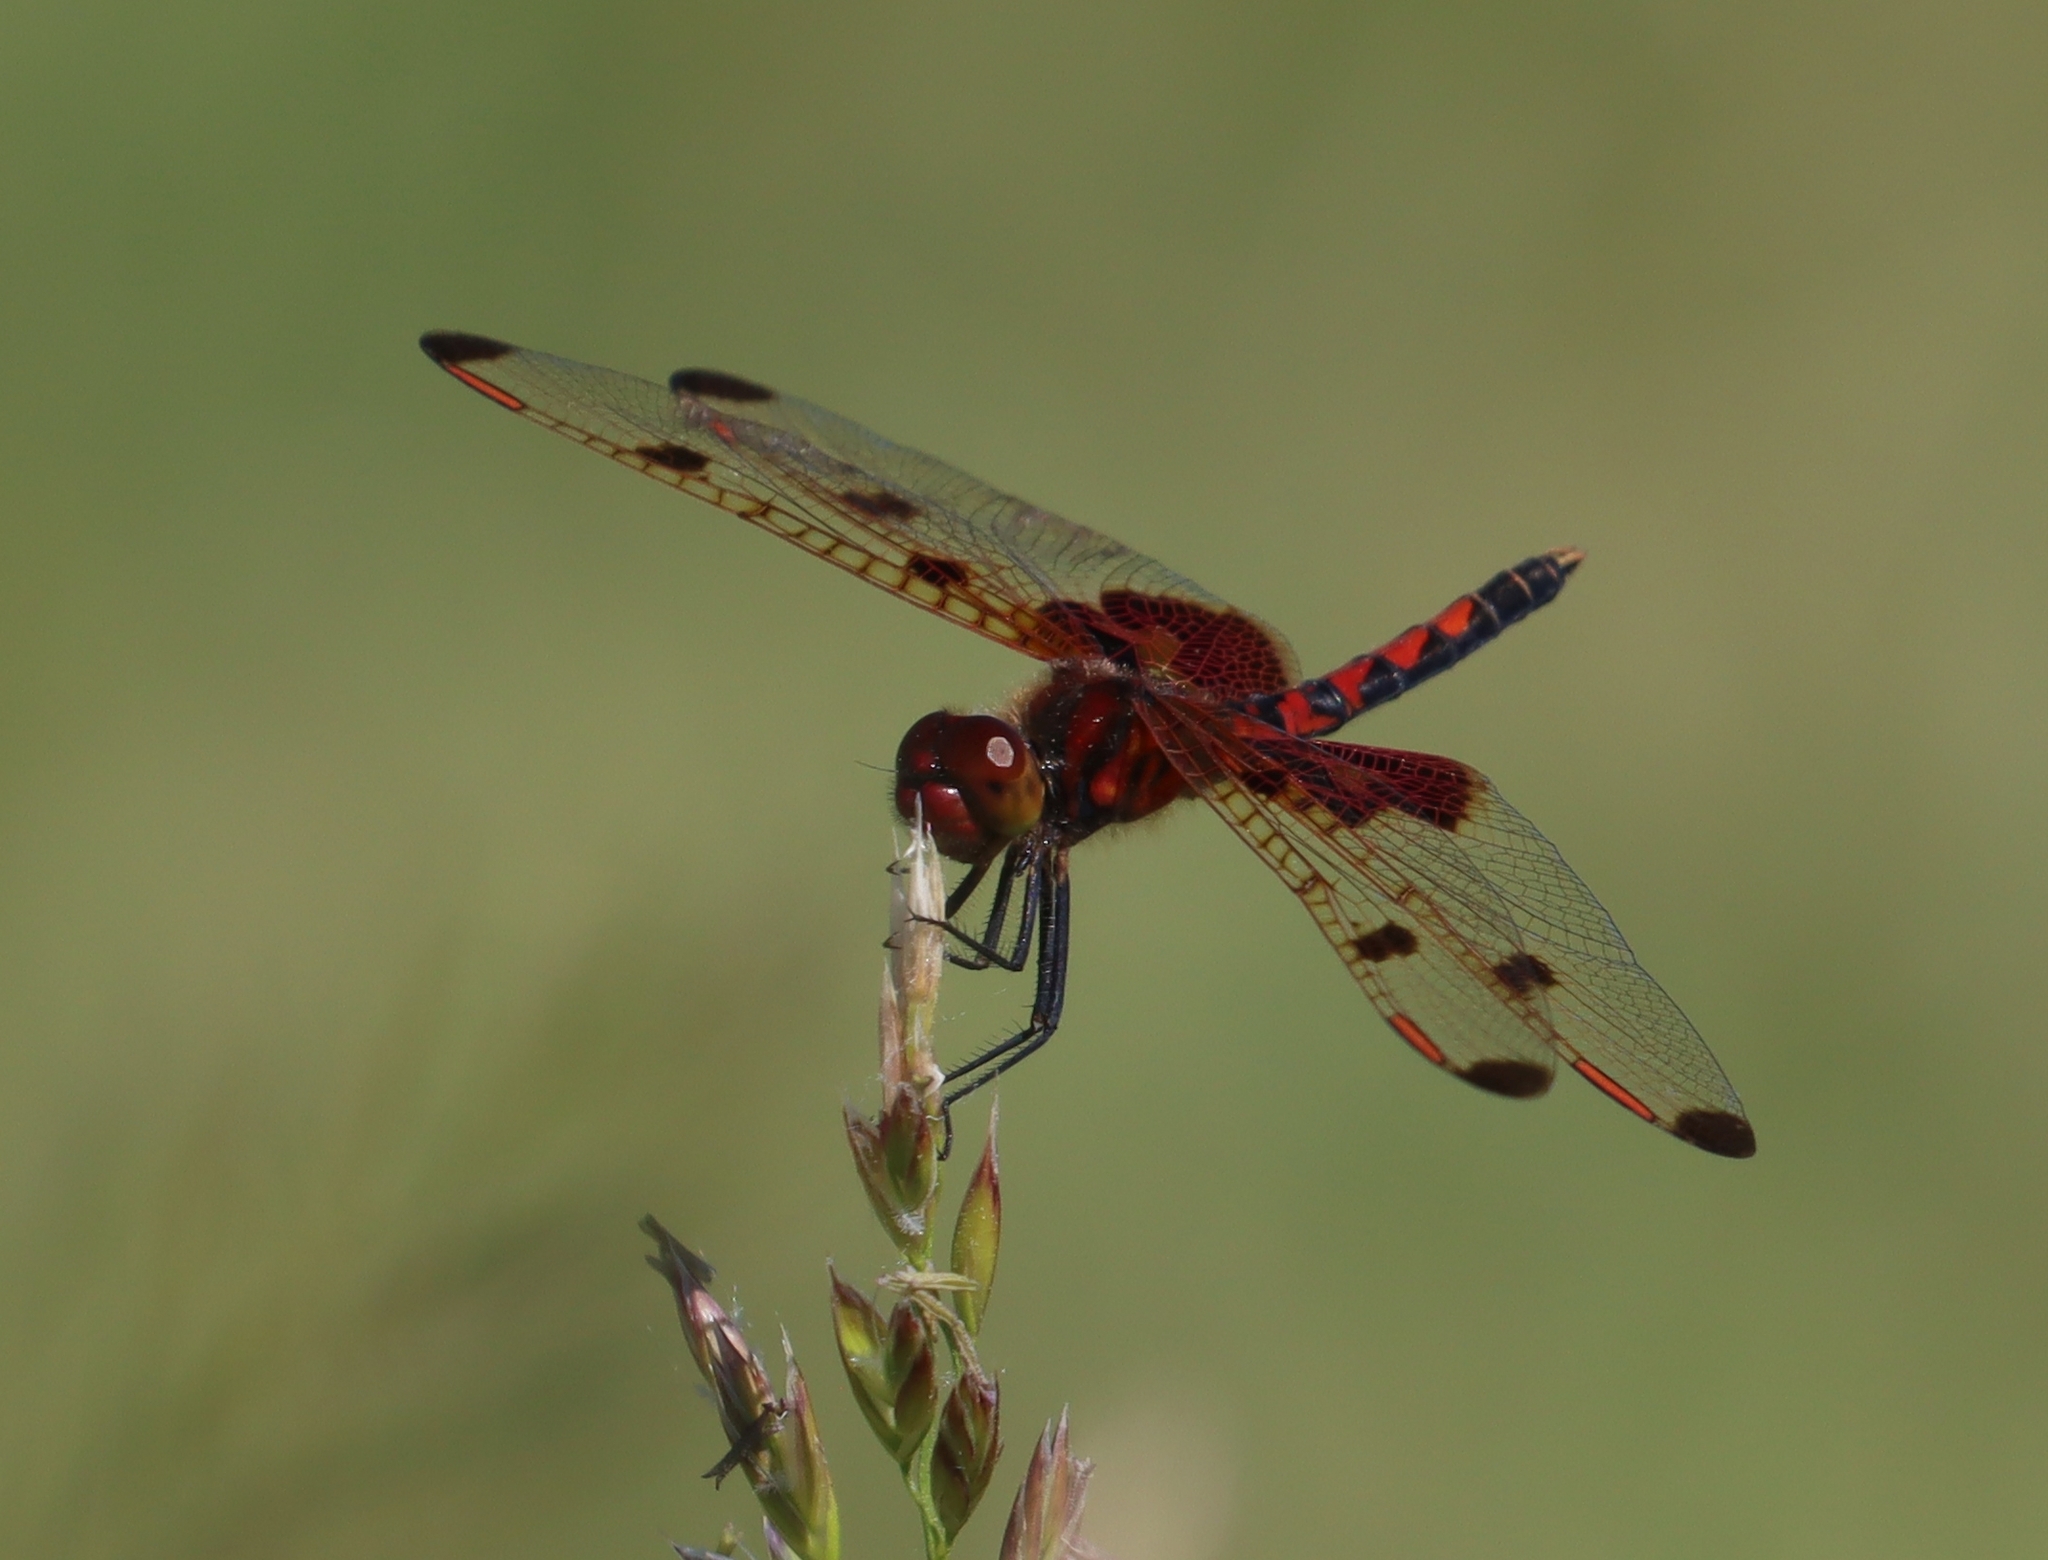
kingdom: Animalia
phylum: Arthropoda
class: Insecta
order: Odonata
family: Libellulidae
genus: Celithemis
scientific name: Celithemis elisa
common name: Calico pennant
